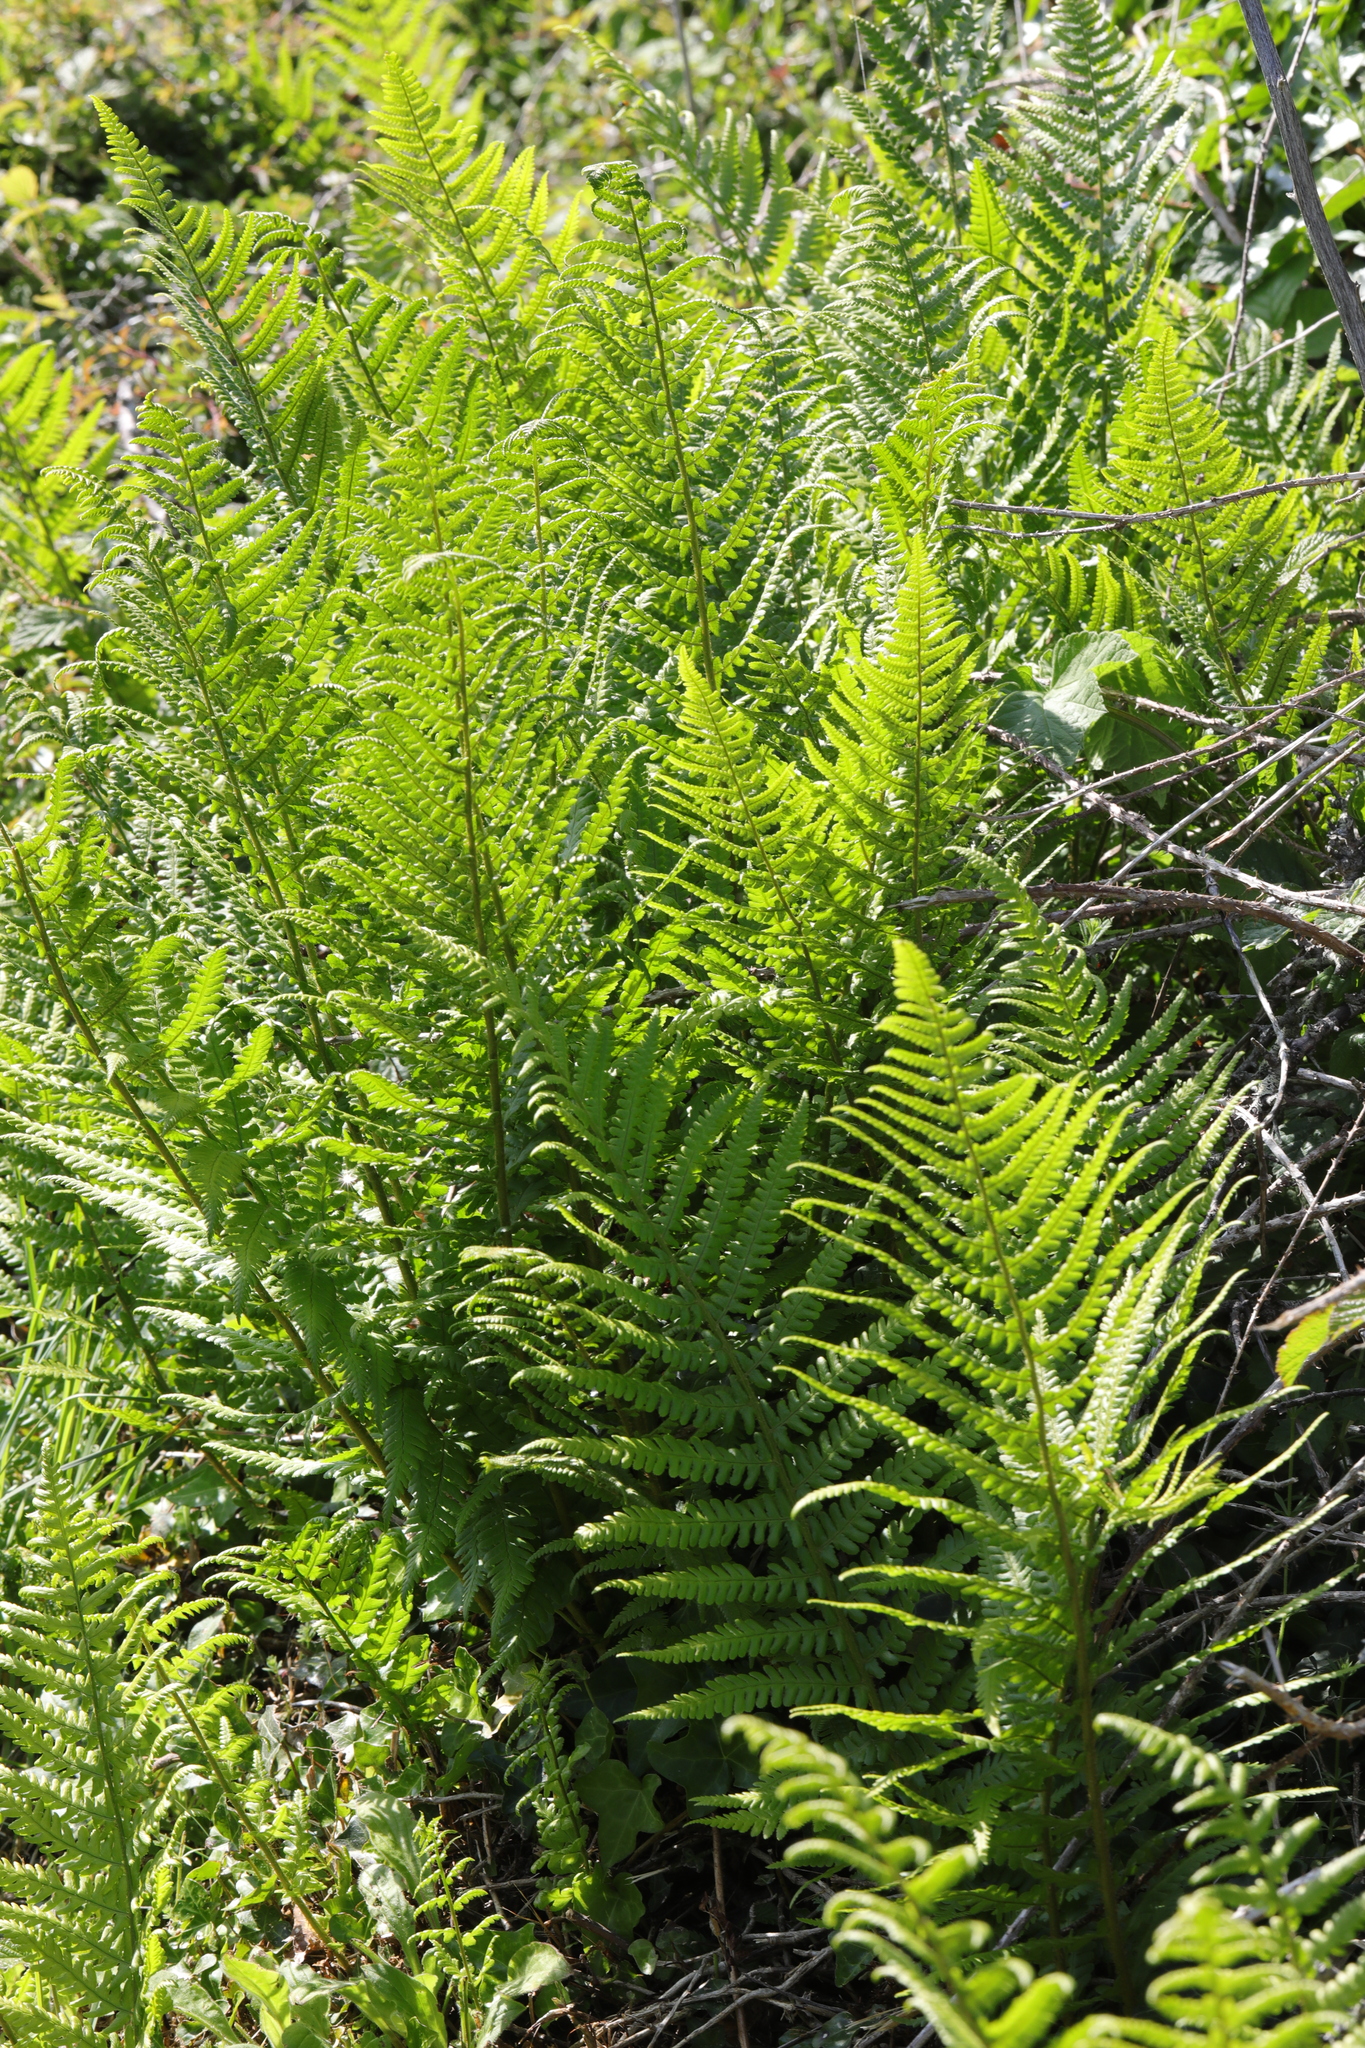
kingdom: Plantae
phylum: Tracheophyta
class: Polypodiopsida
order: Polypodiales
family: Dryopteridaceae
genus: Dryopteris
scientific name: Dryopteris filix-mas
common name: Male fern
